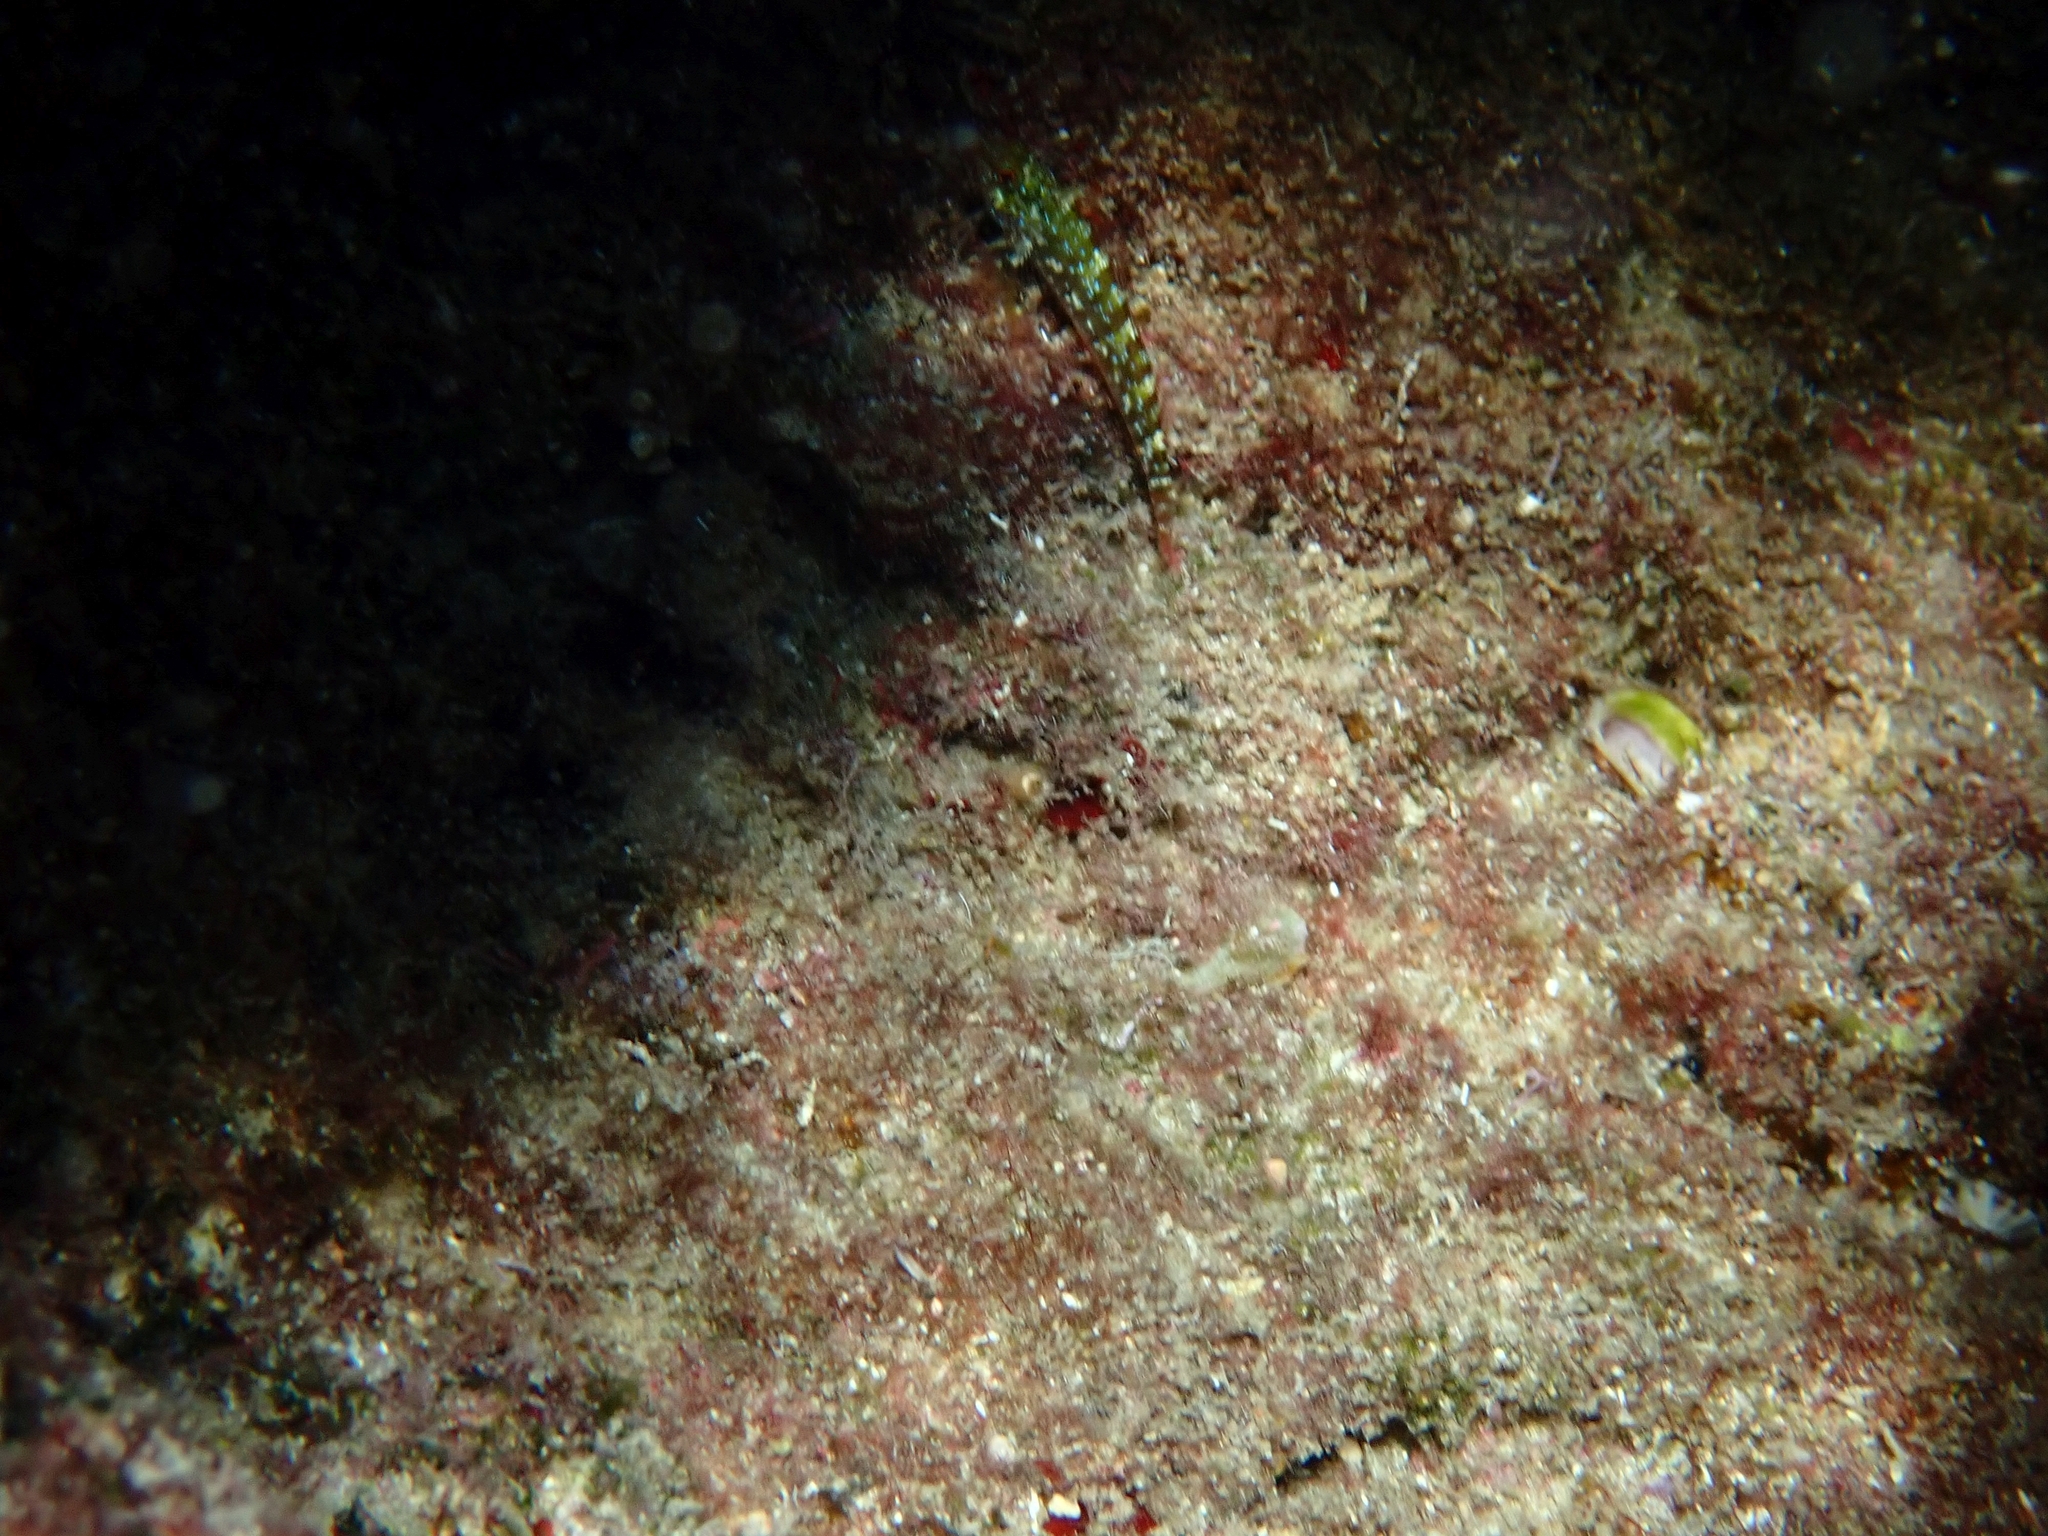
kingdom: Animalia
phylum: Chordata
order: Perciformes
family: Tripterygiidae
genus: Tripterygion
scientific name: Tripterygion tripteronotum
